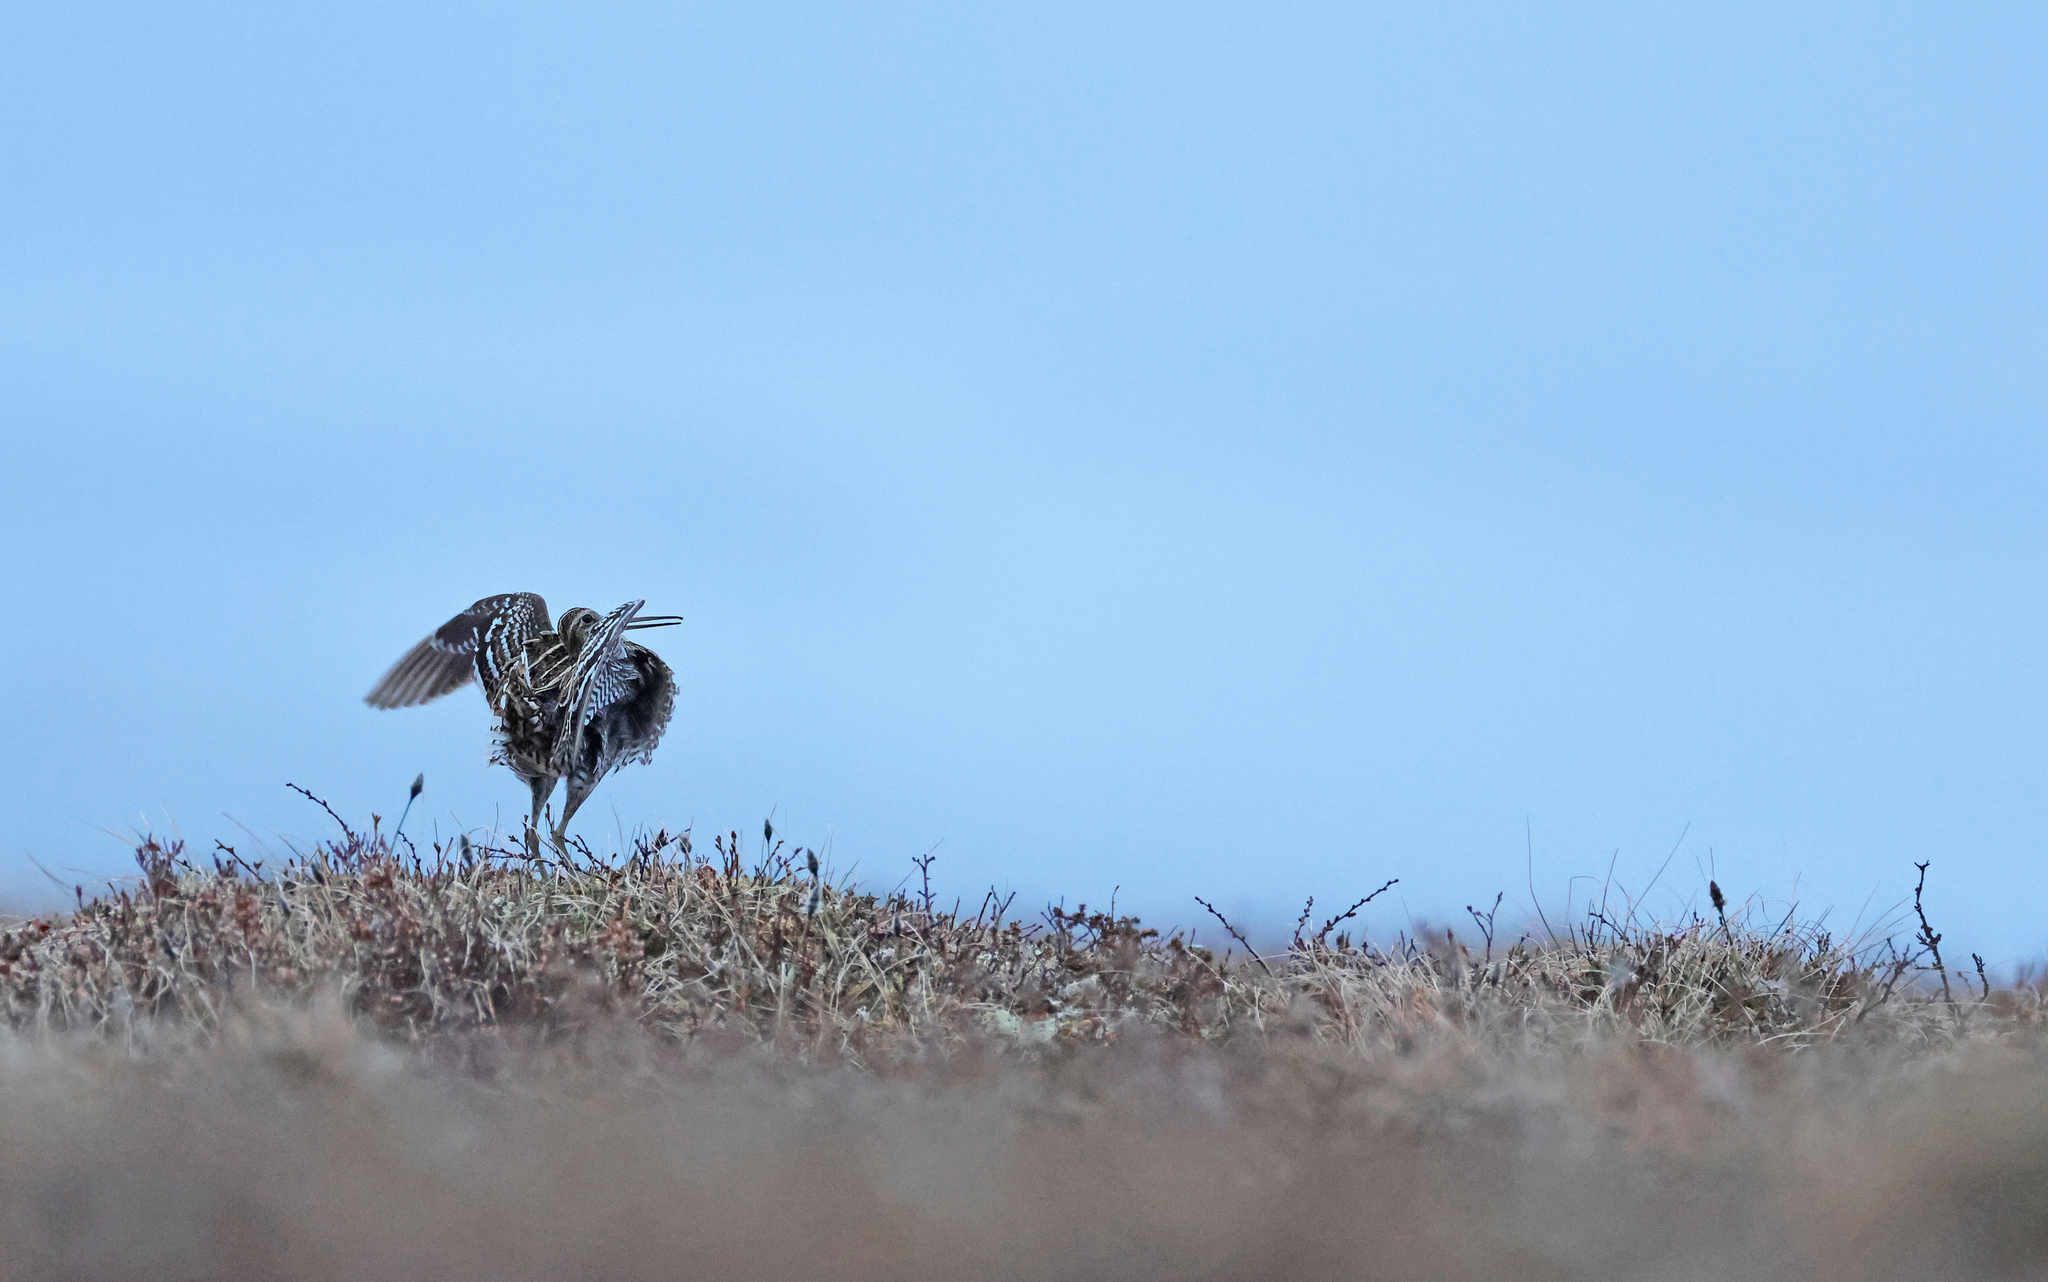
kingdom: Animalia
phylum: Chordata
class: Aves
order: Charadriiformes
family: Scolopacidae
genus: Gallinago
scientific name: Gallinago media
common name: Great snipe
